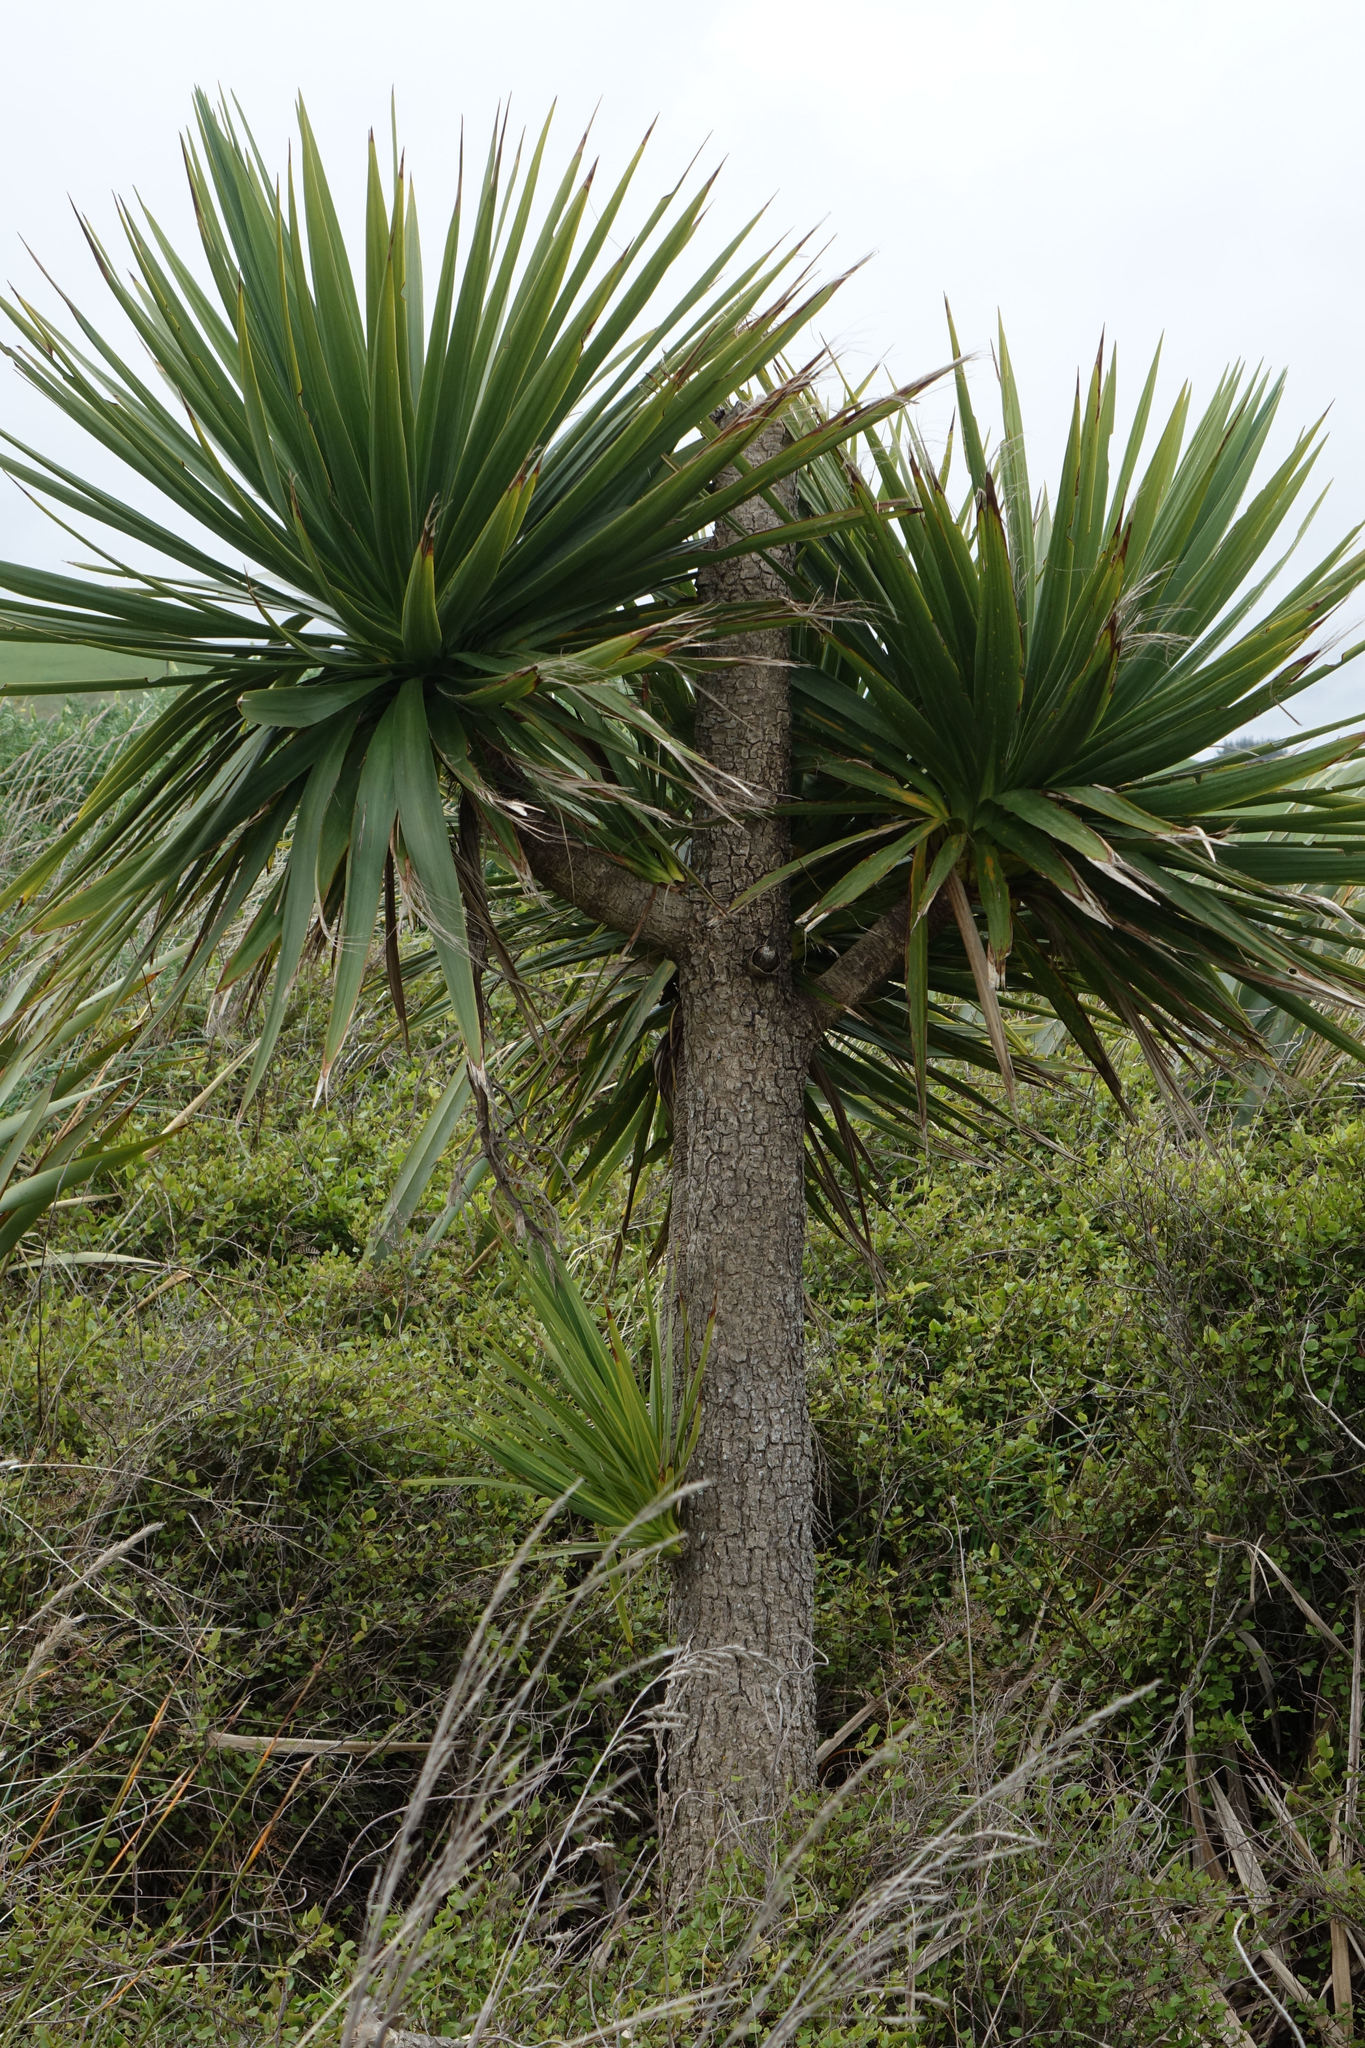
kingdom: Plantae
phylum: Tracheophyta
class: Liliopsida
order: Asparagales
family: Asparagaceae
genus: Cordyline
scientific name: Cordyline australis
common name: Cabbage-palm
